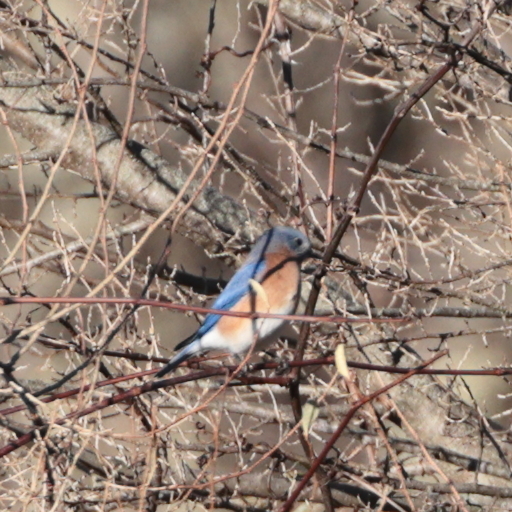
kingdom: Animalia
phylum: Chordata
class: Aves
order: Passeriformes
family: Turdidae
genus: Sialia
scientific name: Sialia sialis
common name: Eastern bluebird
